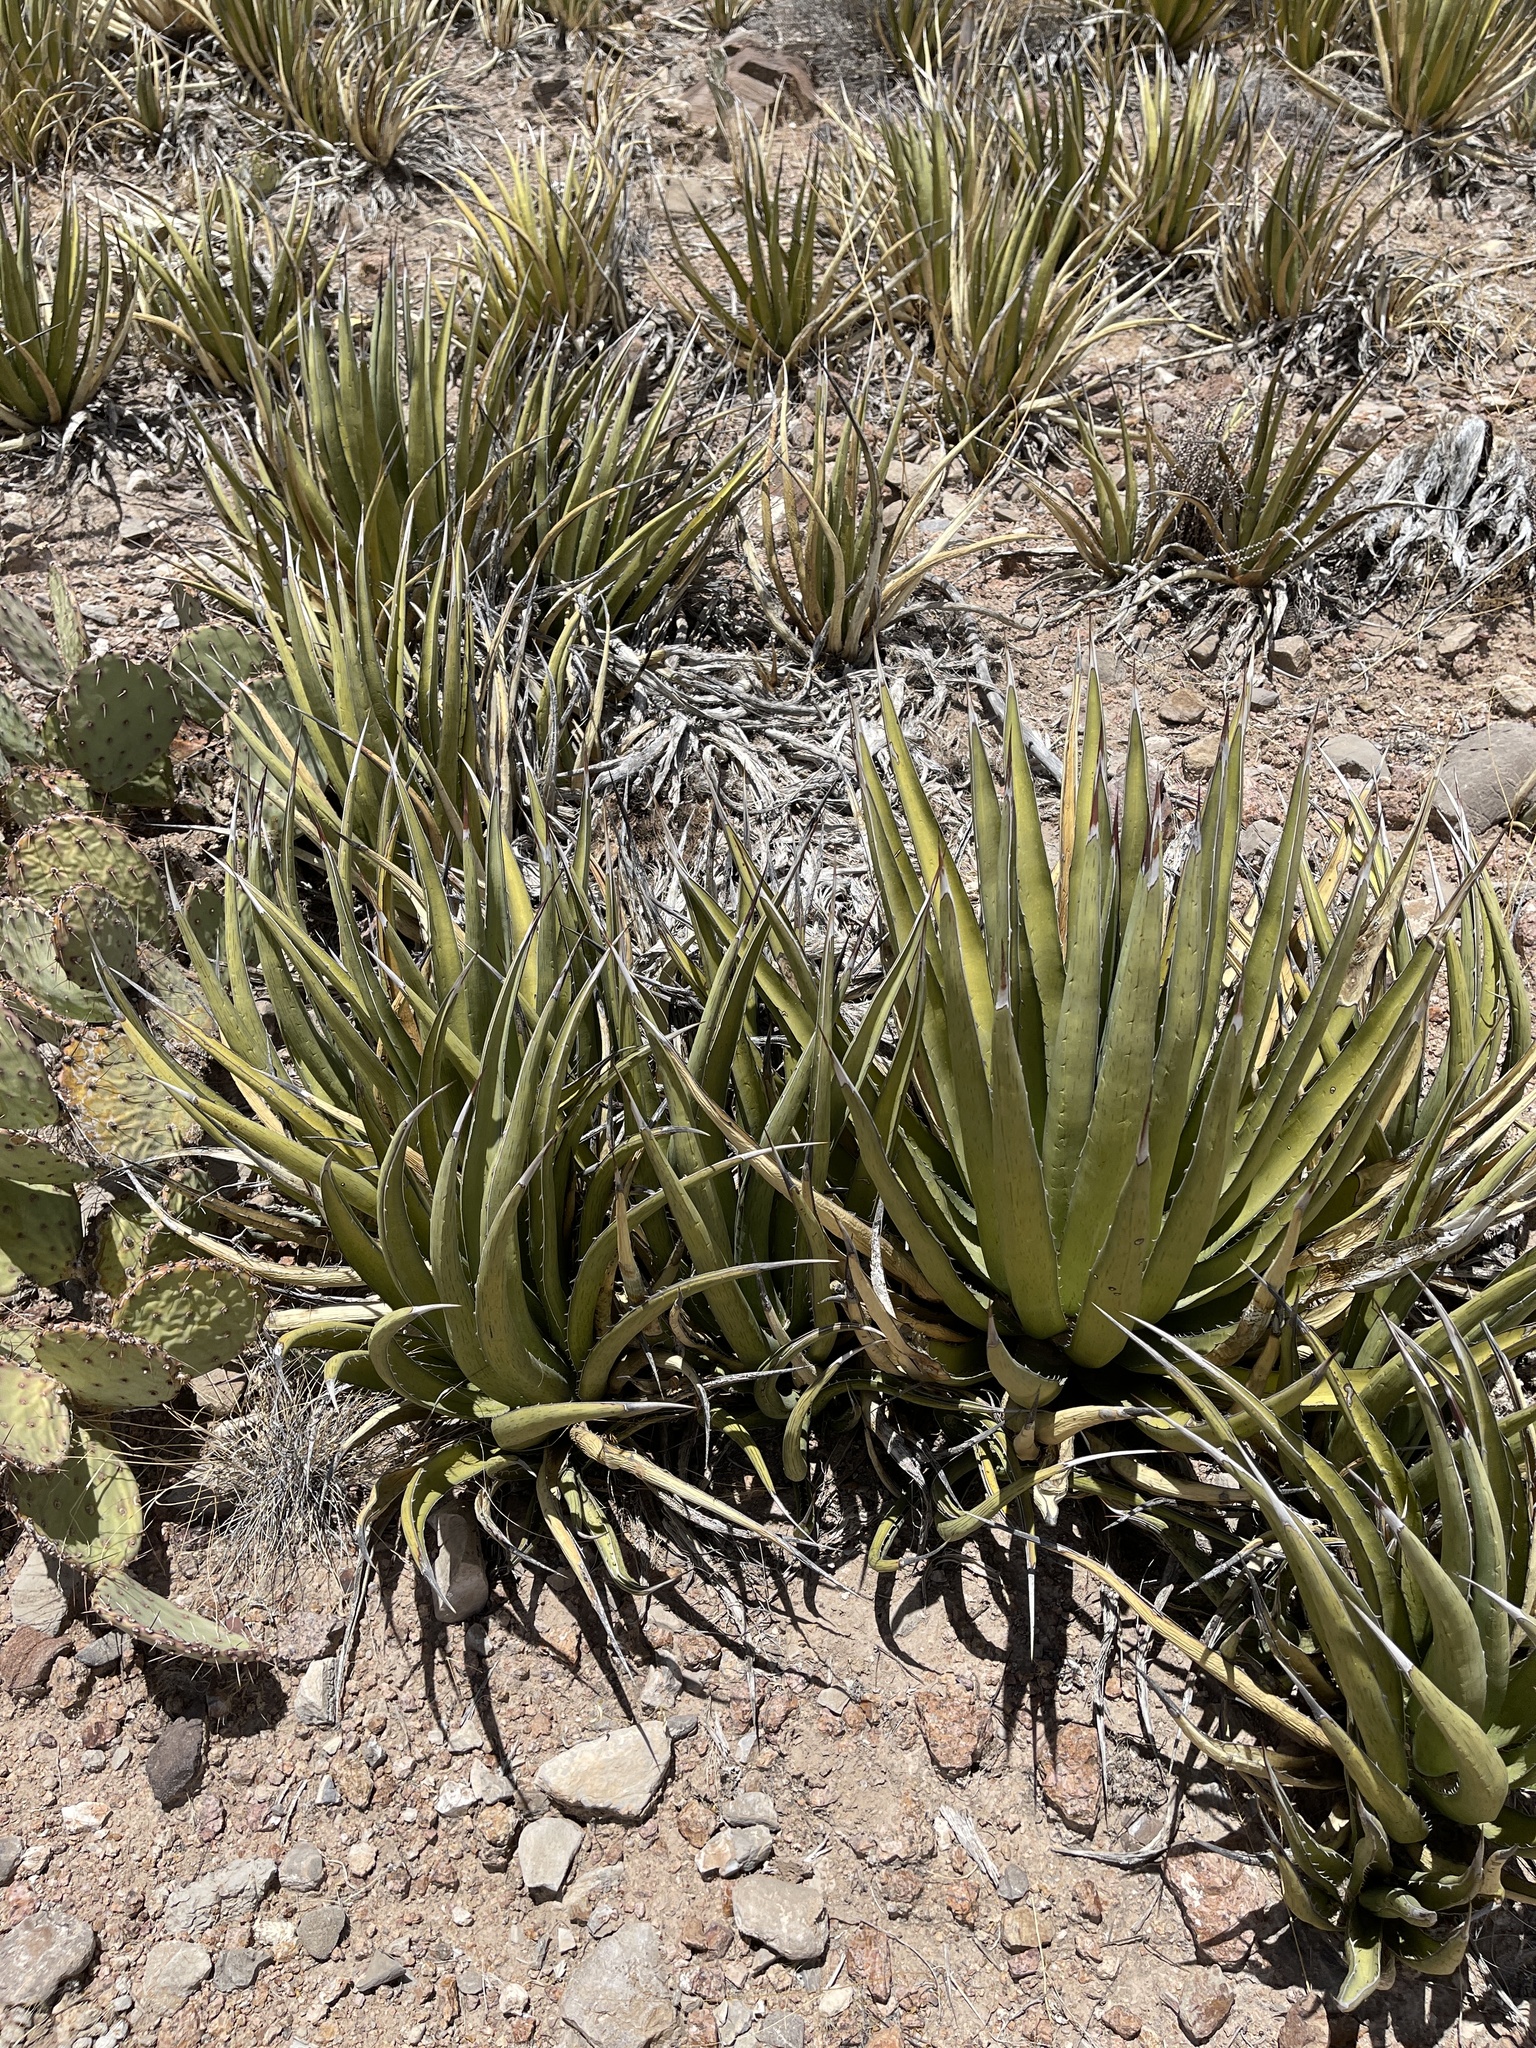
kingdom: Plantae
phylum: Tracheophyta
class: Liliopsida
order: Asparagales
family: Asparagaceae
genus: Agave
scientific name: Agave lechuguilla
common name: Lecheguilla agave
